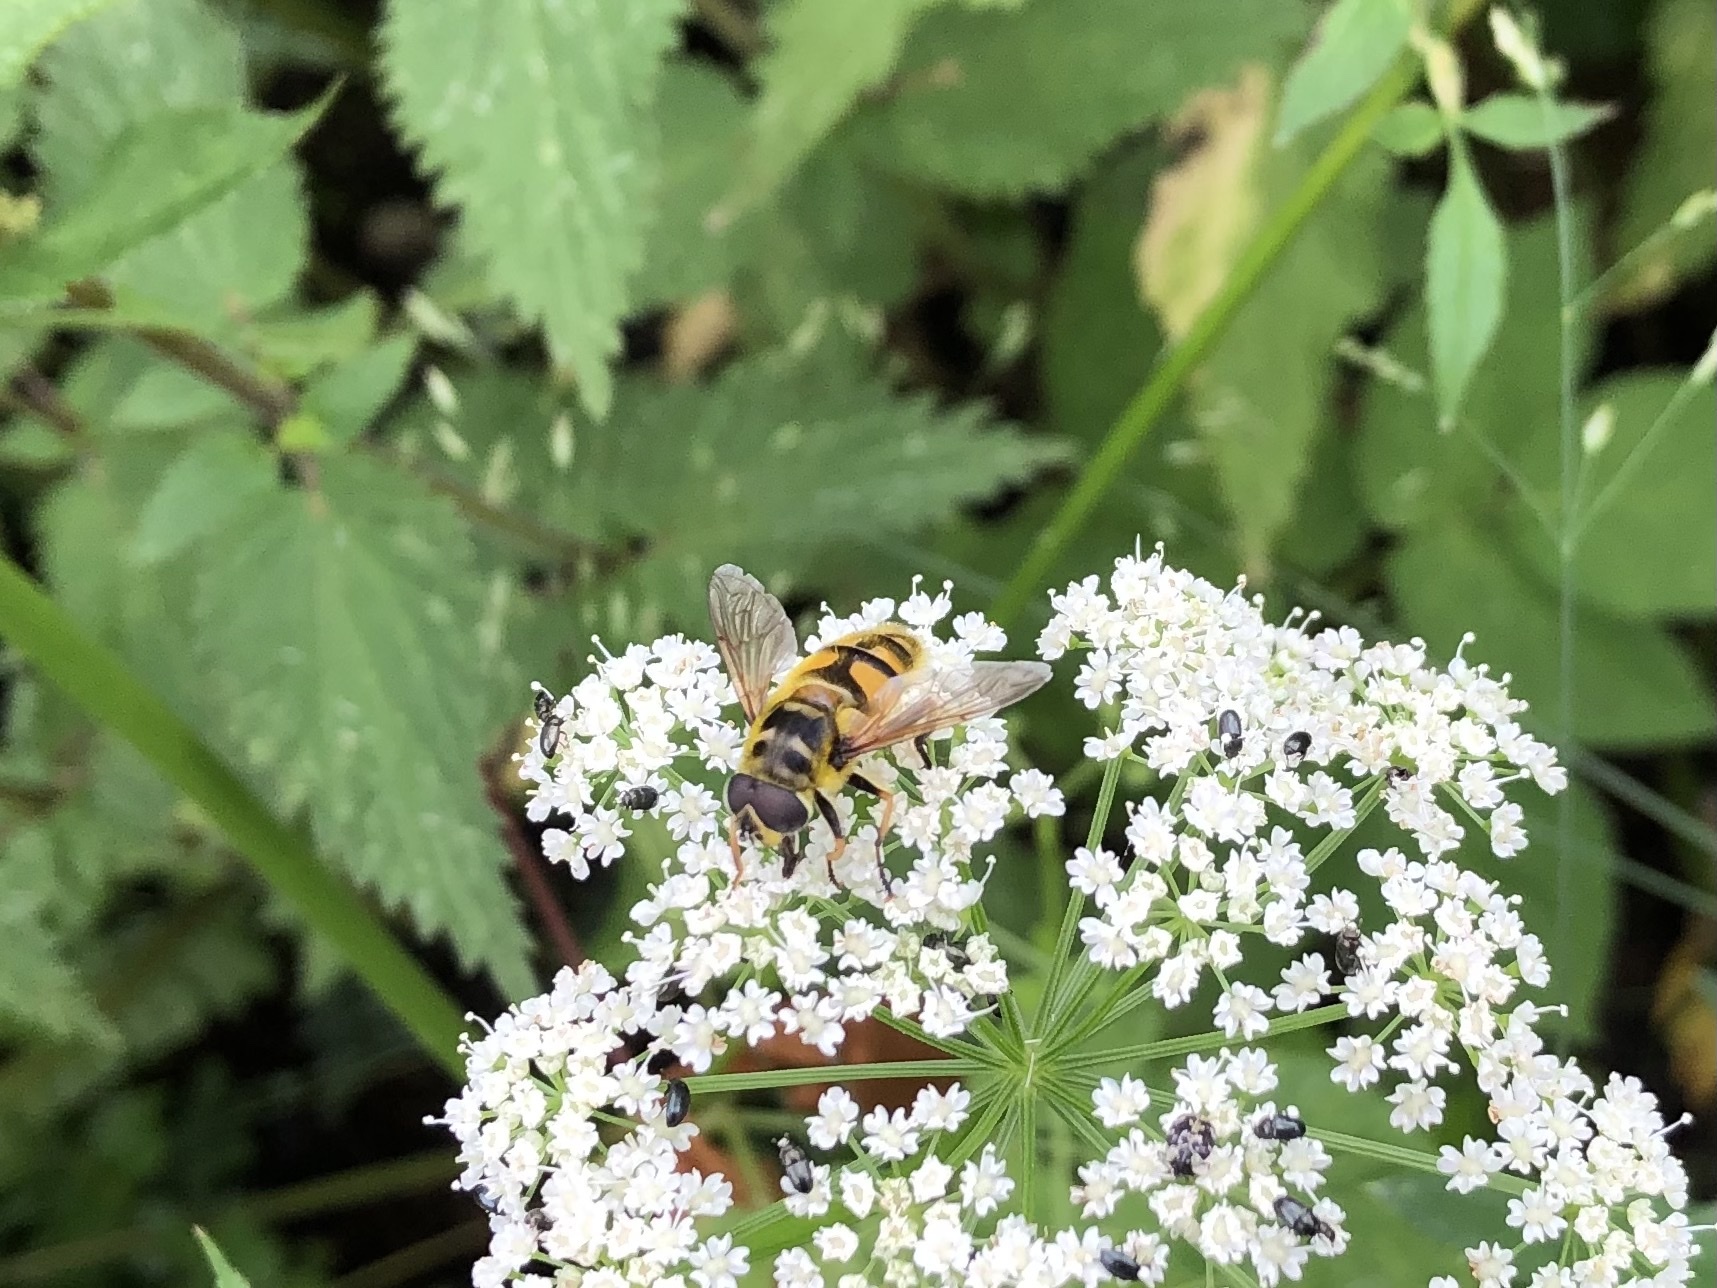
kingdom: Animalia
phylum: Arthropoda
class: Insecta
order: Diptera
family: Syrphidae
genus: Myathropa
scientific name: Myathropa florea
